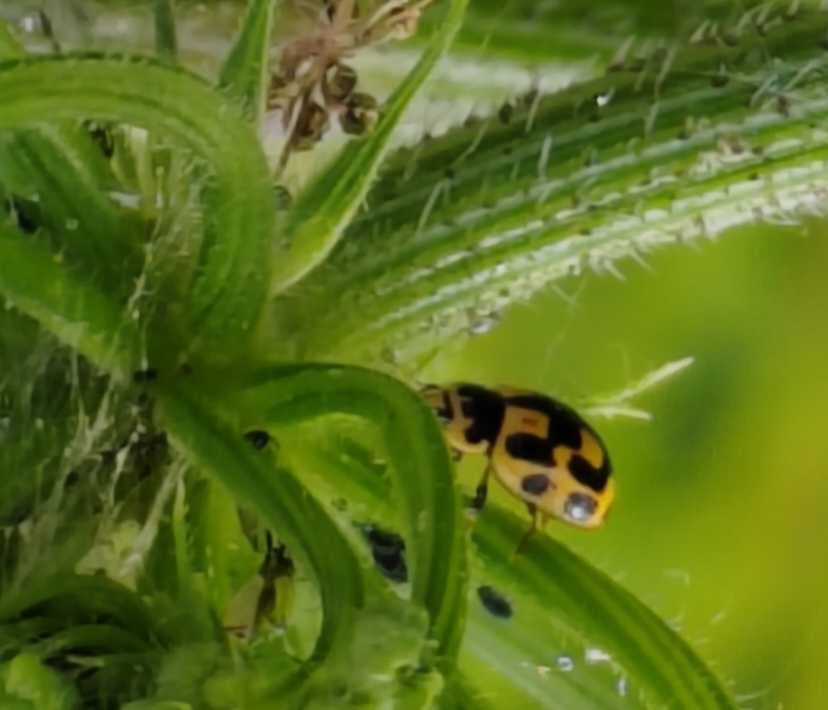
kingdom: Animalia
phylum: Arthropoda
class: Insecta
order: Coleoptera
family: Coccinellidae
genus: Propylaea
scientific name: Propylaea quatuordecimpunctata
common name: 14-spotted ladybird beetle
